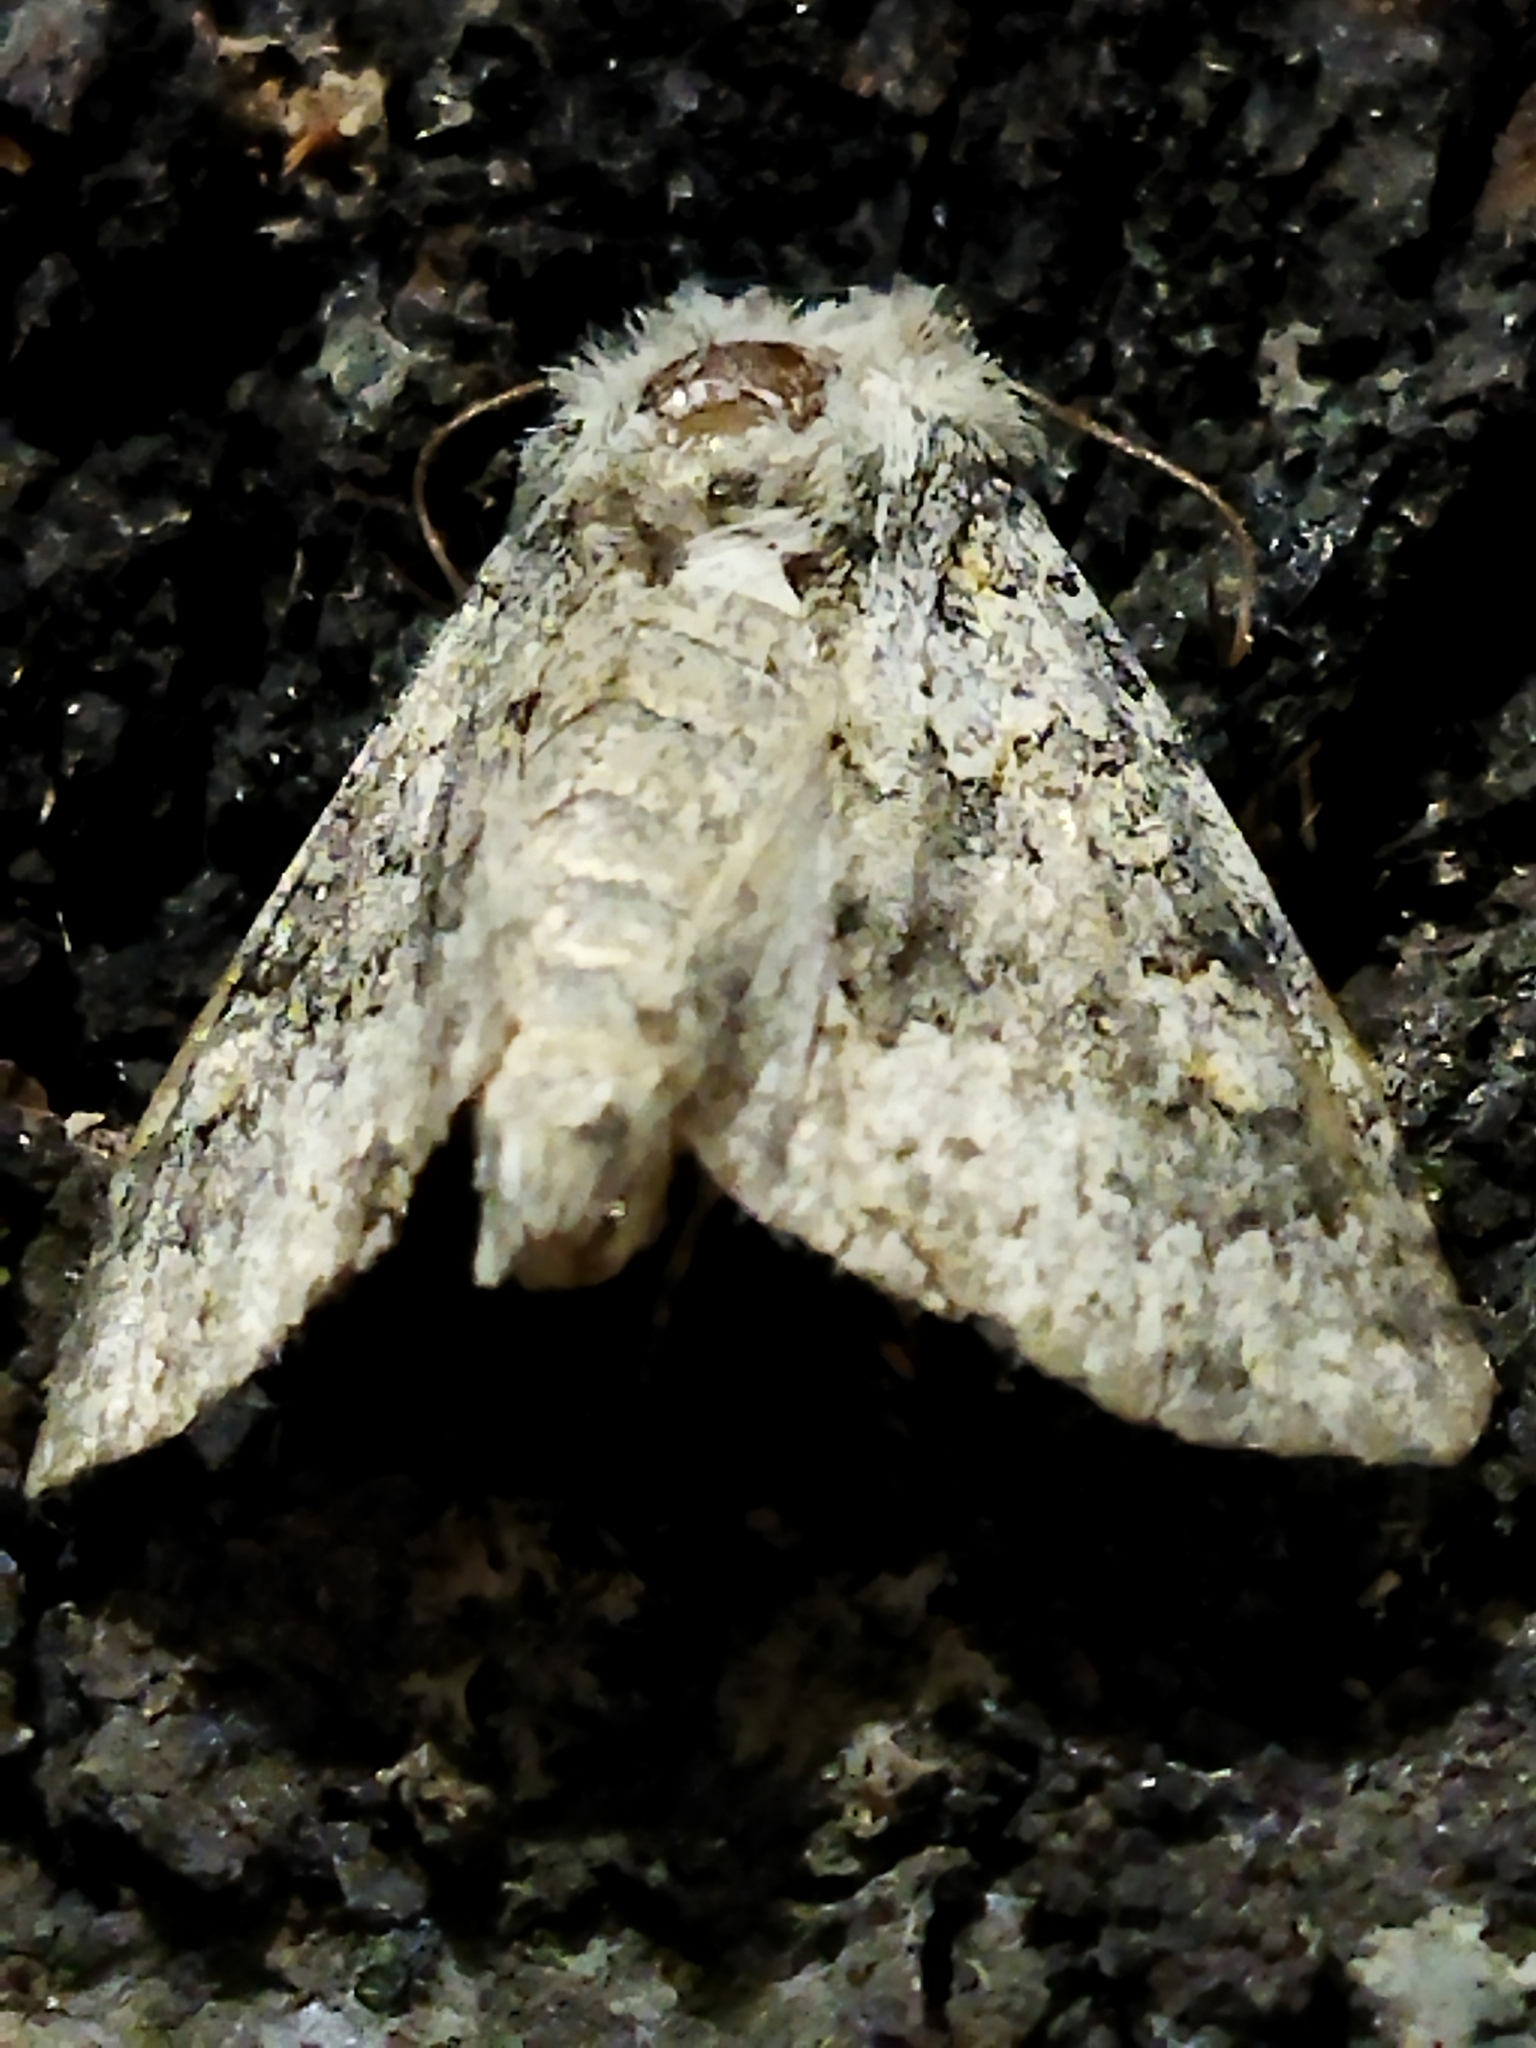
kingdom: Animalia
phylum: Arthropoda
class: Insecta
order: Lepidoptera
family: Noctuidae
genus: Hecatera
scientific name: Hecatera dysodea
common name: Small ranunculus
